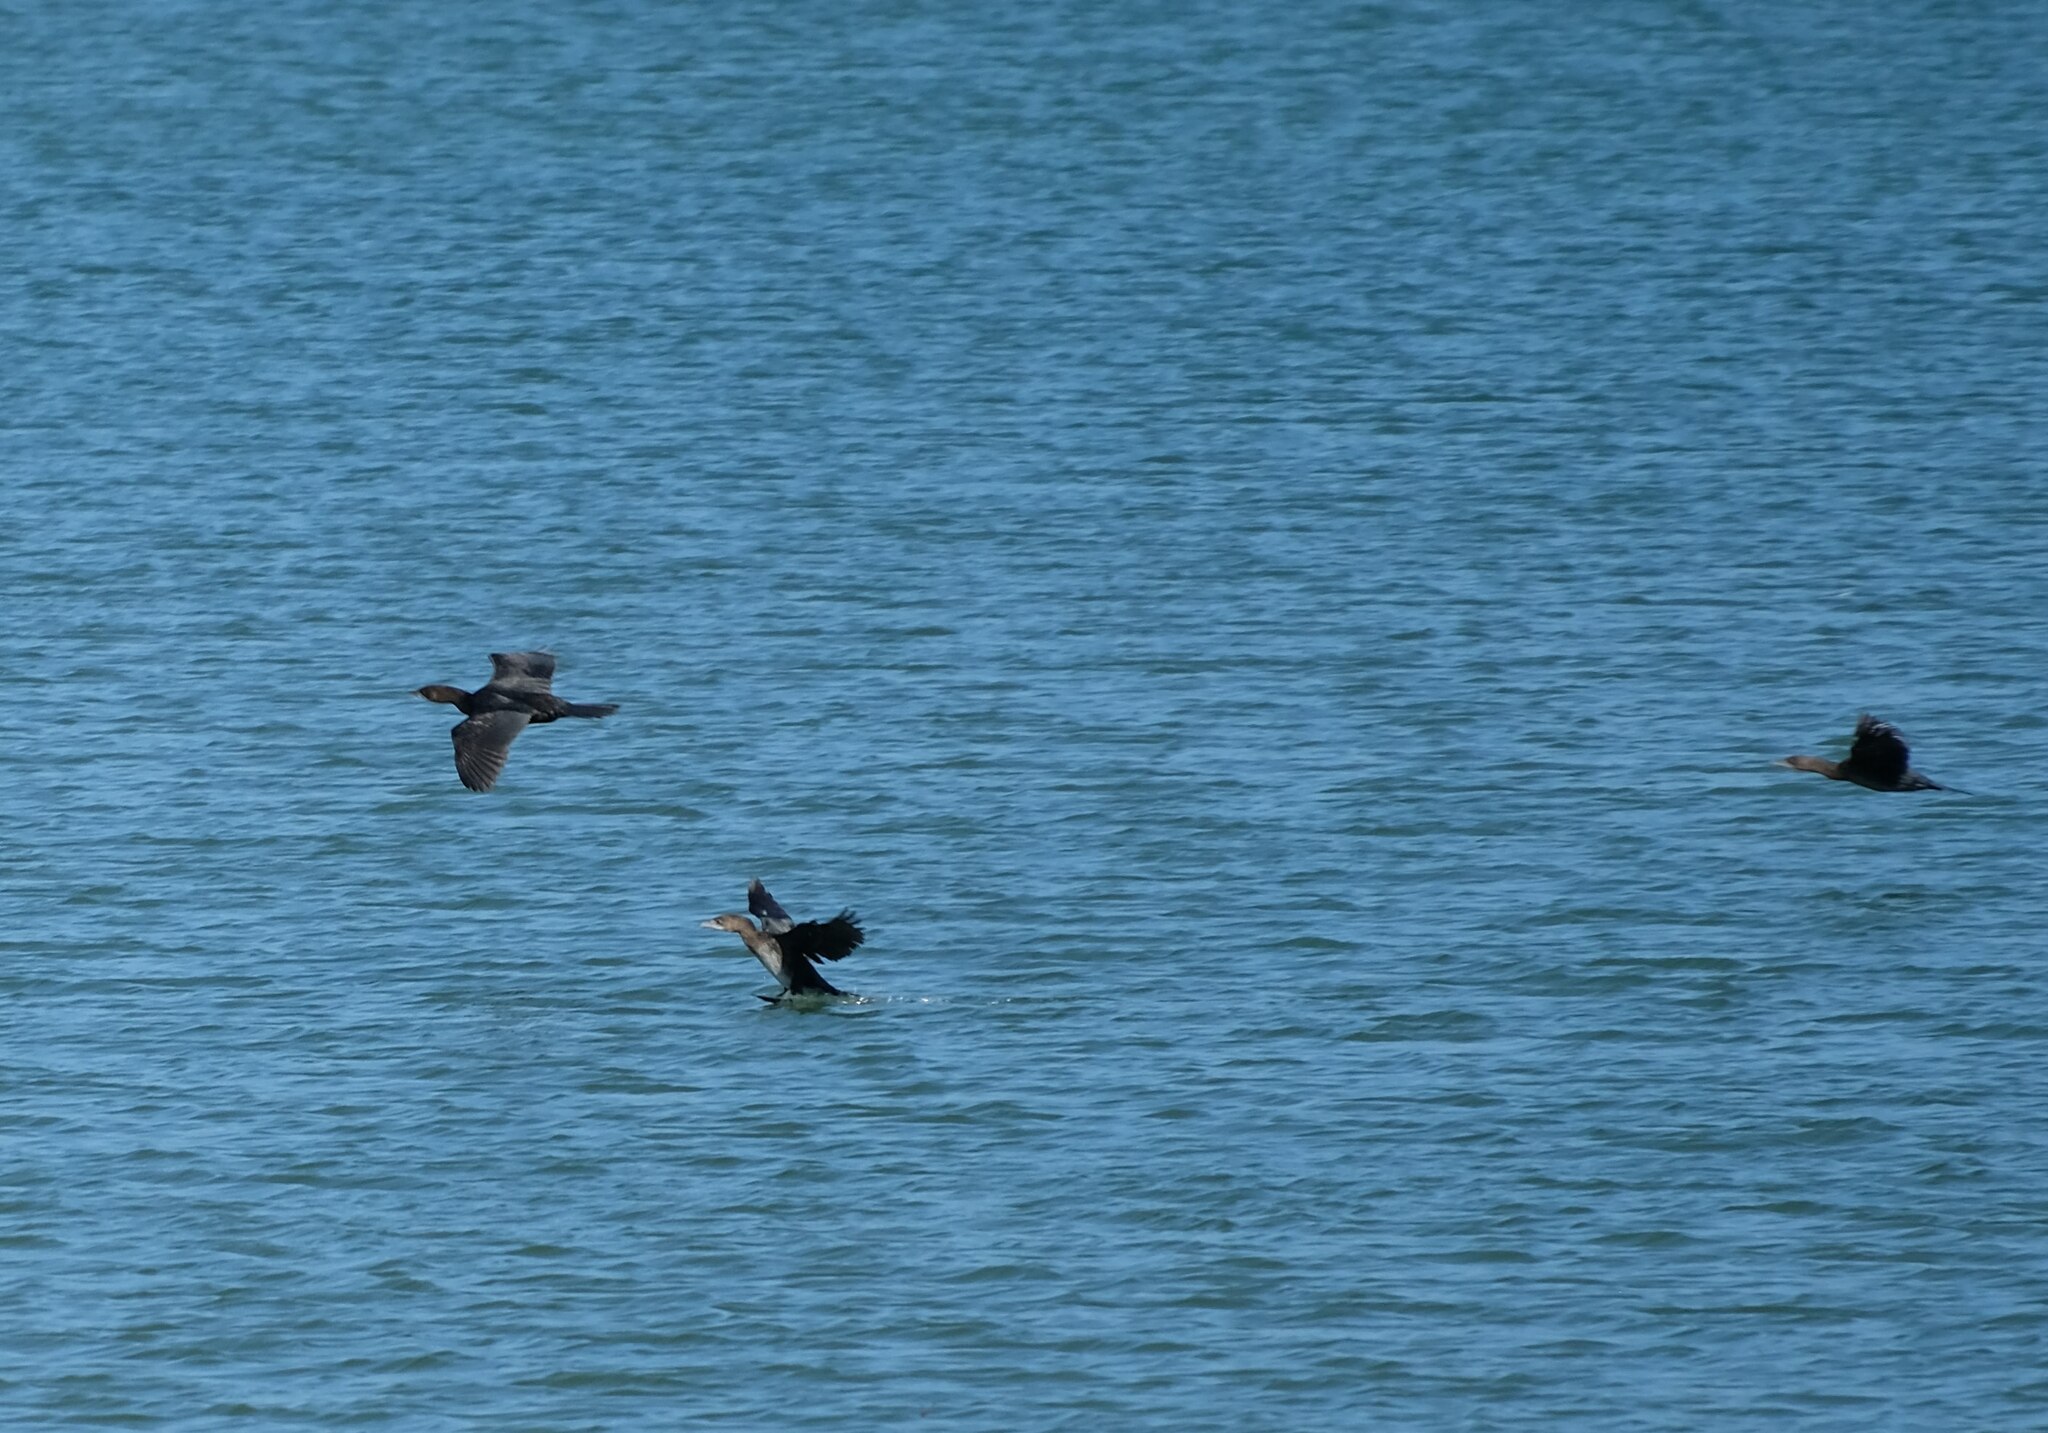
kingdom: Animalia
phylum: Chordata
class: Aves
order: Suliformes
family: Phalacrocoracidae
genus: Microcarbo
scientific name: Microcarbo pygmaeus
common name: Pygmy cormorant
